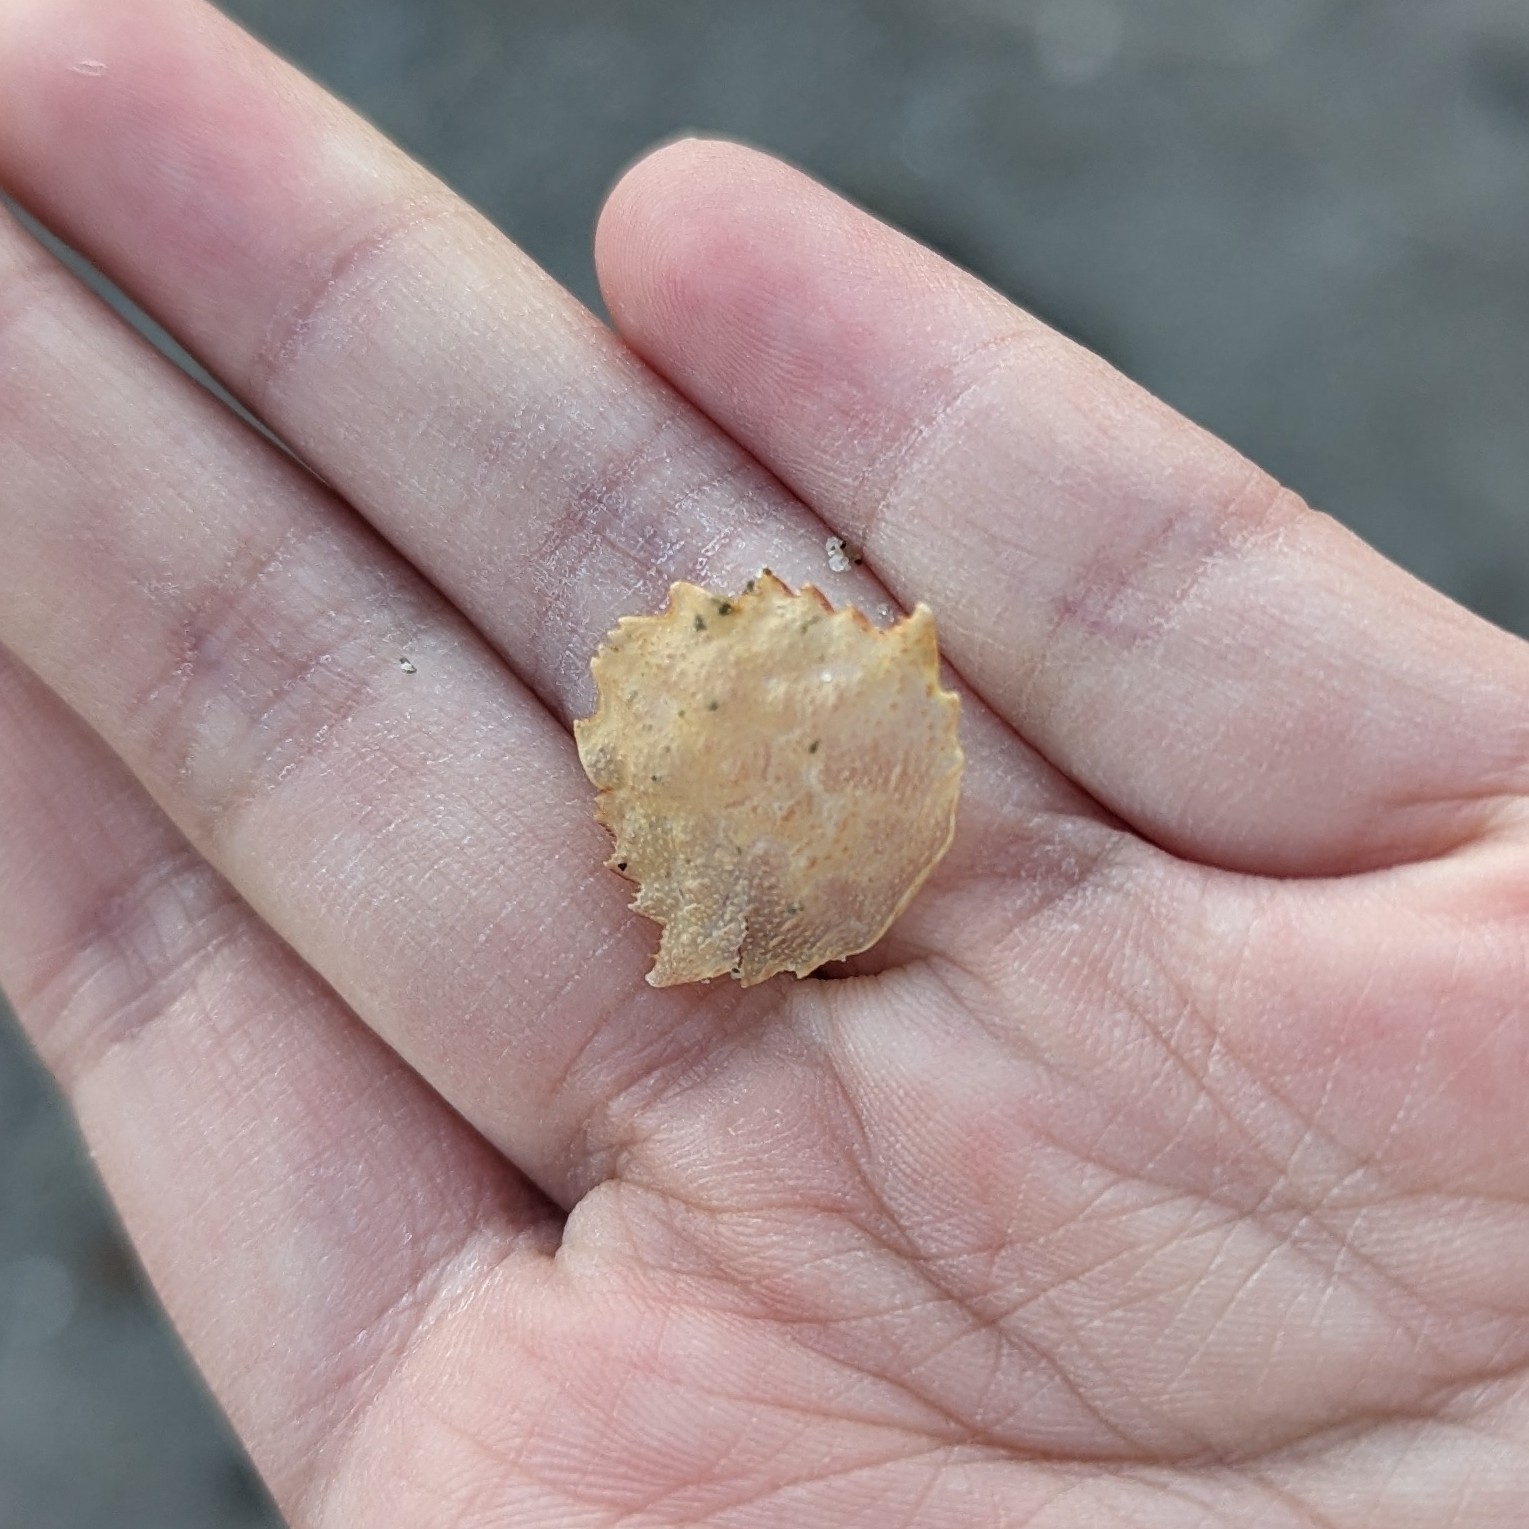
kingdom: Animalia
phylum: Arthropoda
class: Malacostraca
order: Decapoda
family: Cheiragonidae
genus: Telmessus
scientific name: Telmessus cheiragonus
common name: Helmet crab
